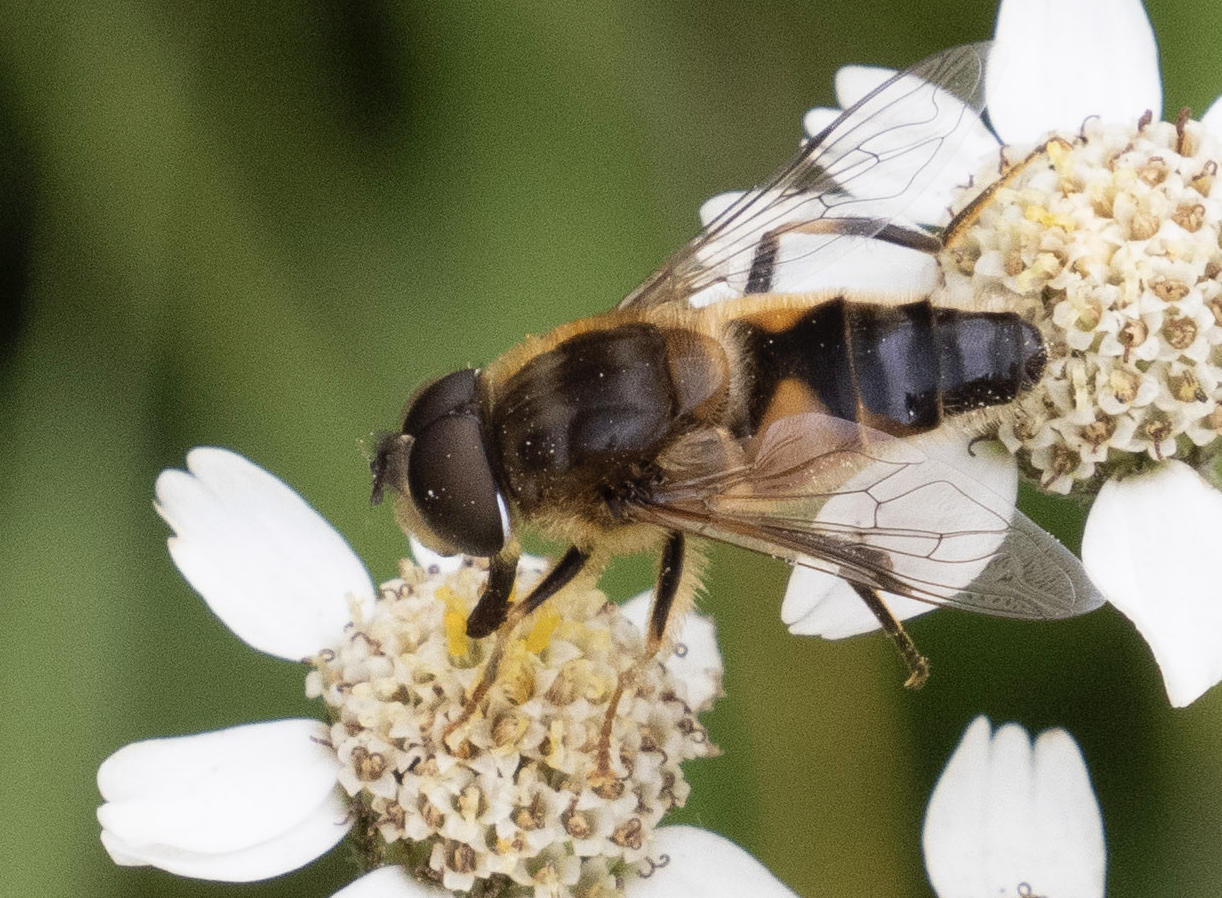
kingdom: Animalia
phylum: Arthropoda
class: Insecta
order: Diptera
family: Syrphidae
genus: Eristalis
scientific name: Eristalis pertinax
